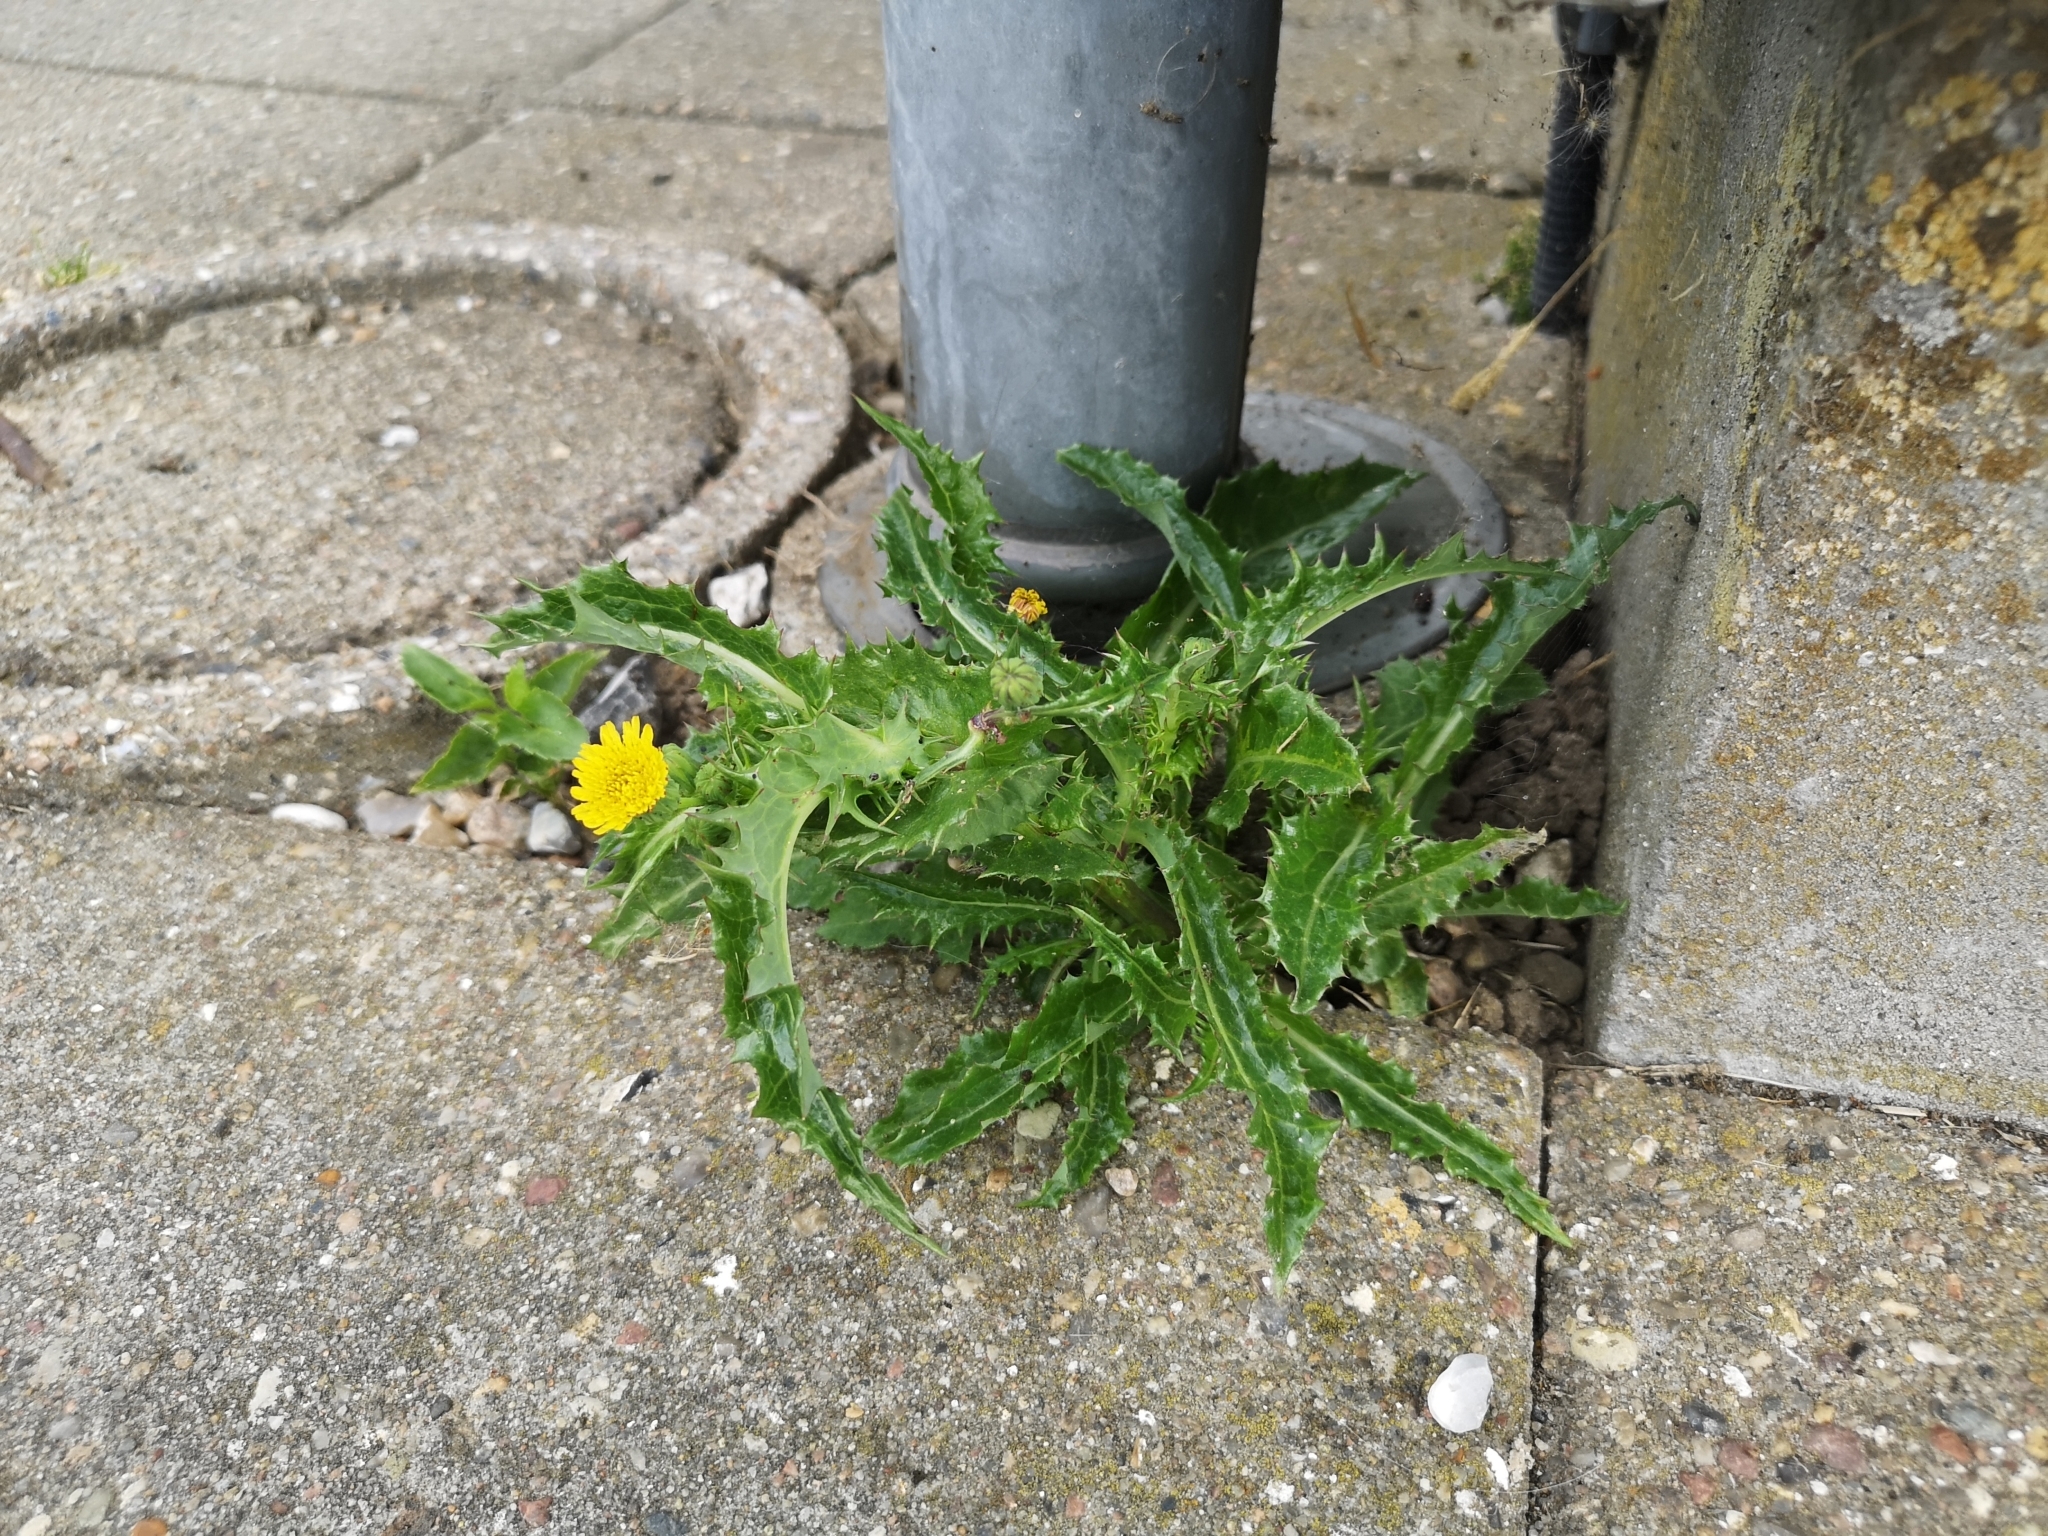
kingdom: Plantae
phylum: Tracheophyta
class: Magnoliopsida
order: Asterales
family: Asteraceae
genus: Sonchus
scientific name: Sonchus asper
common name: Prickly sow-thistle
